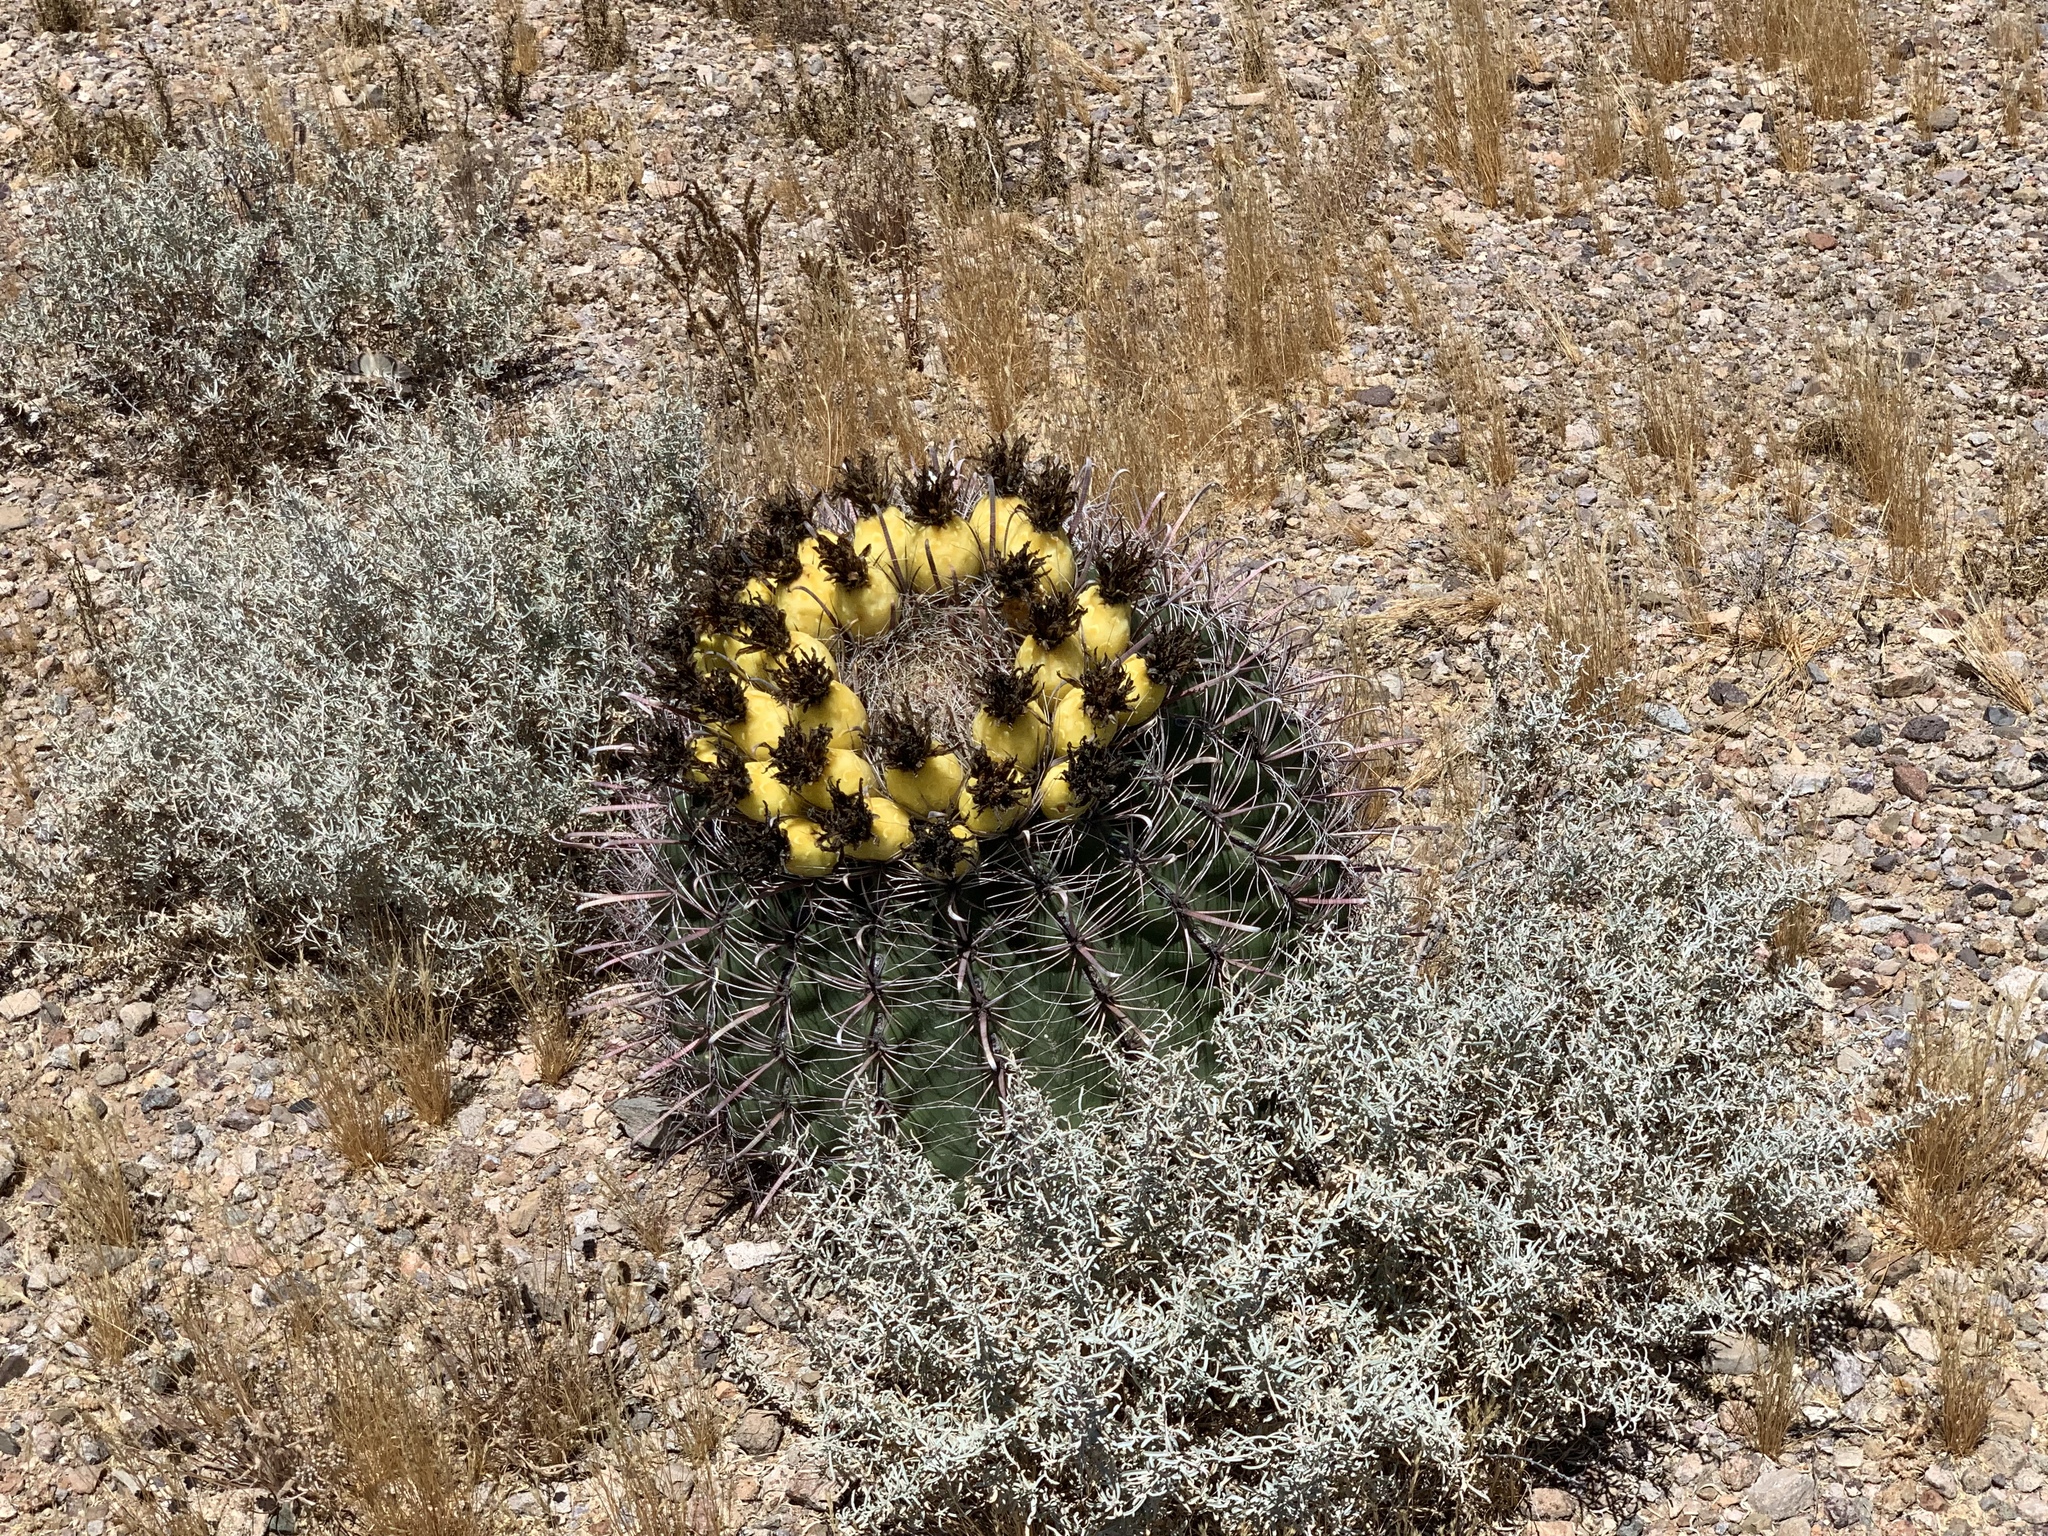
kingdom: Plantae
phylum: Tracheophyta
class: Magnoliopsida
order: Caryophyllales
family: Cactaceae
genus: Ferocactus
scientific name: Ferocactus wislizeni
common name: Candy barrel cactus
